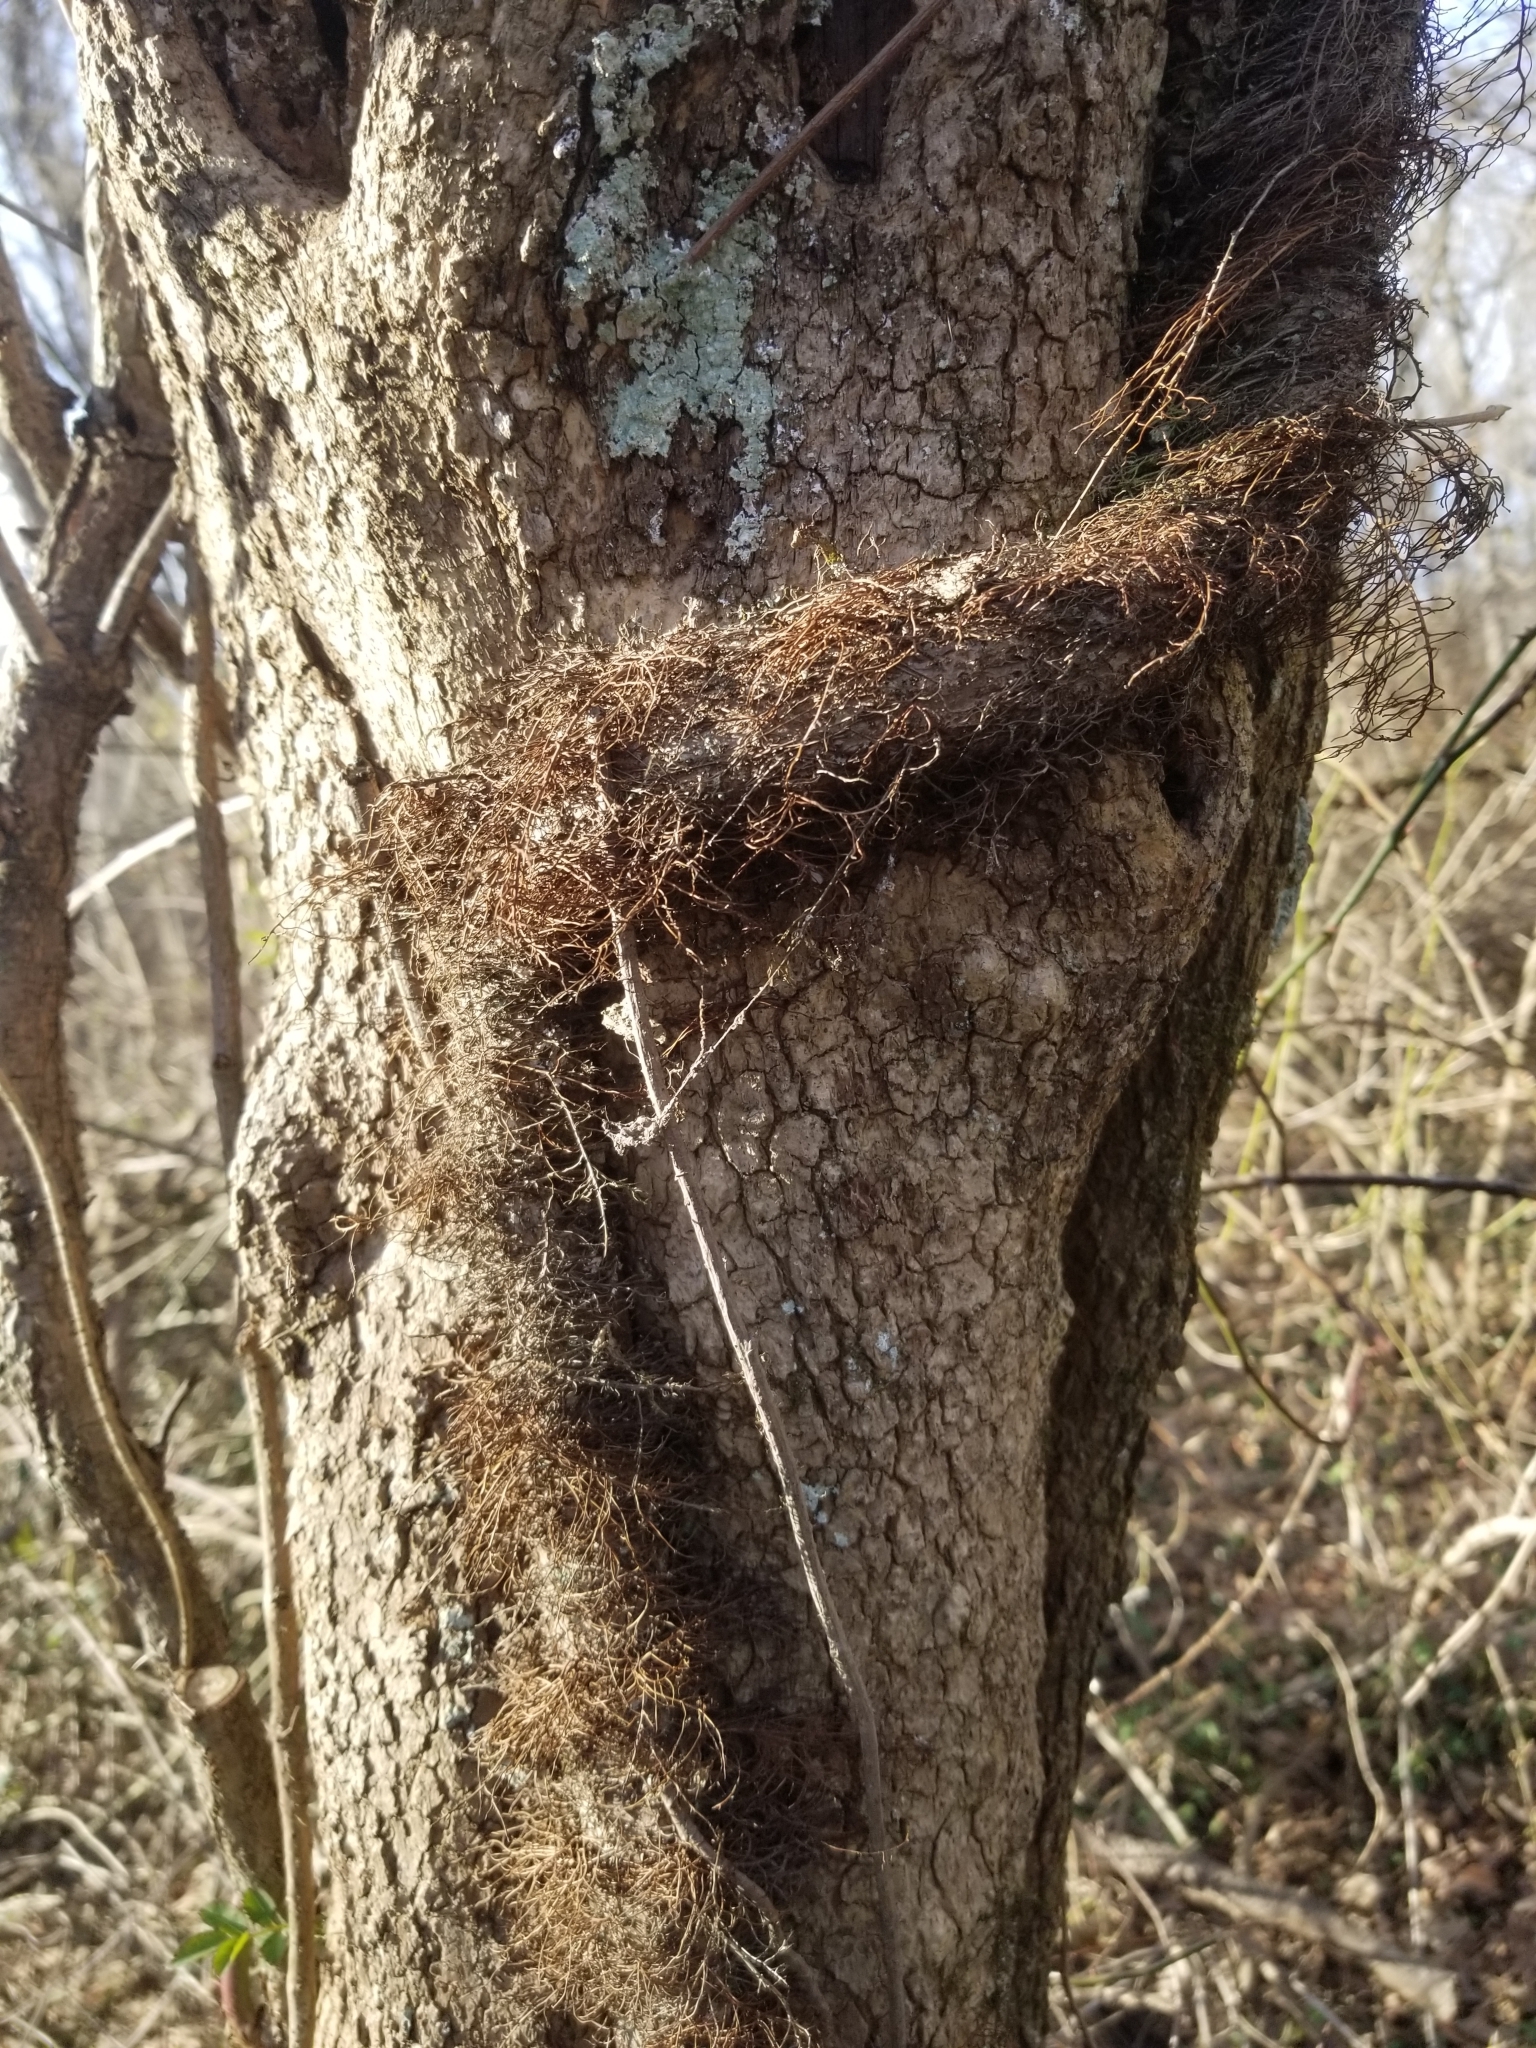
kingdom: Plantae
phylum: Tracheophyta
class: Magnoliopsida
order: Sapindales
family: Anacardiaceae
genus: Toxicodendron
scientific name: Toxicodendron radicans
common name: Poison ivy
